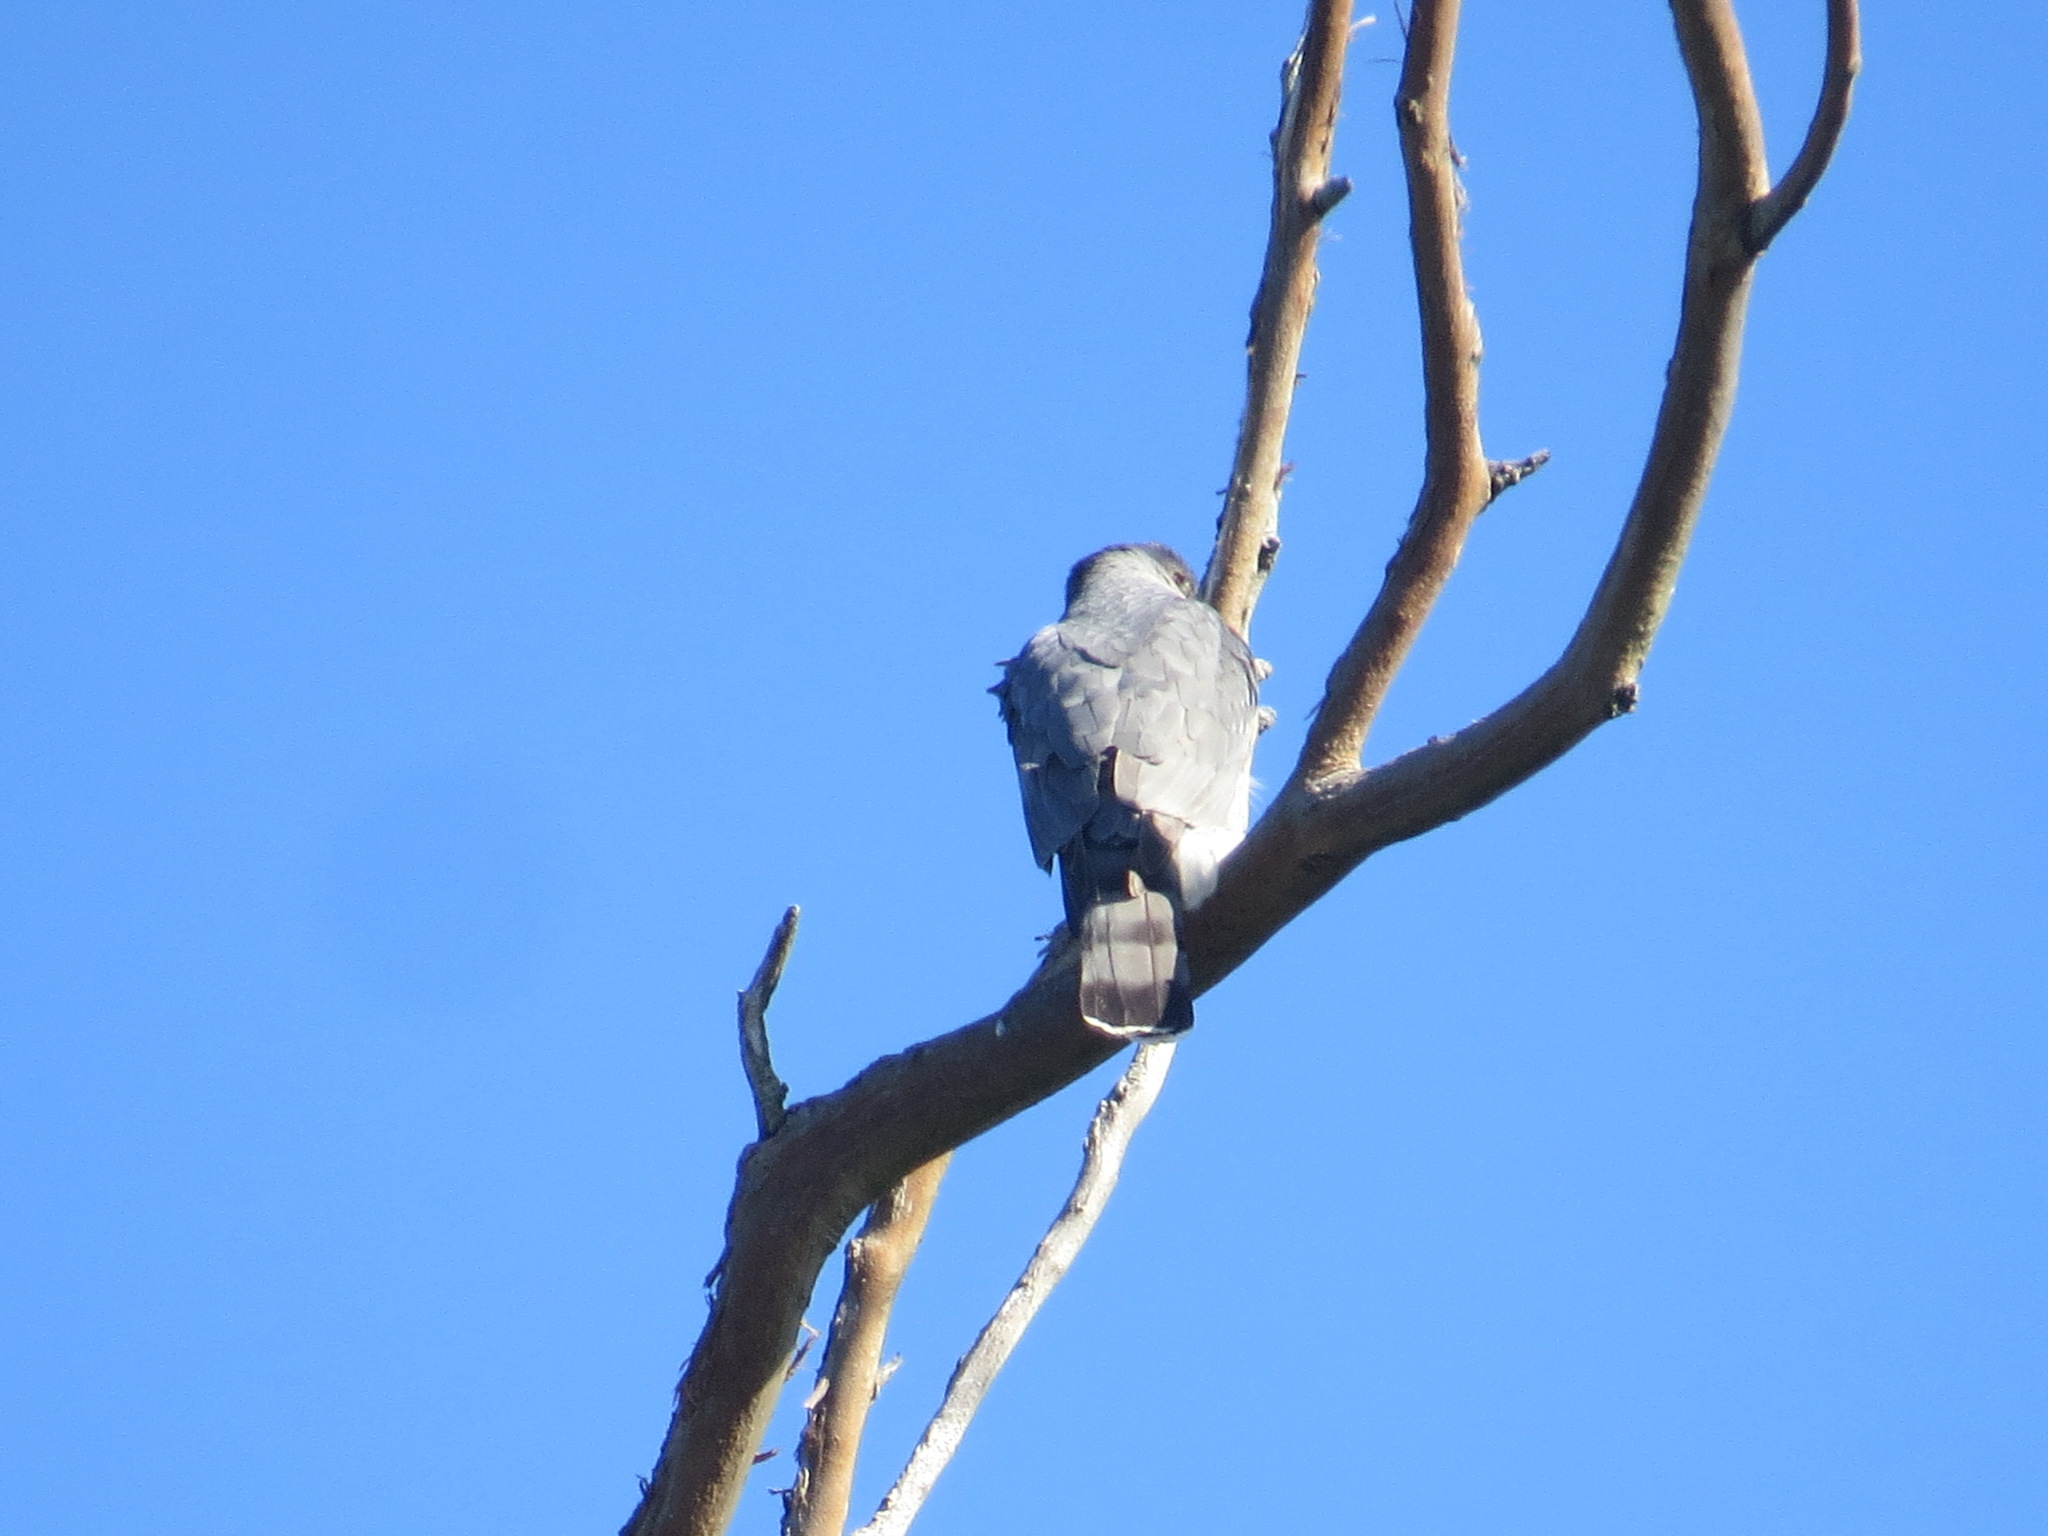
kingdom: Animalia
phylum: Chordata
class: Aves
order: Accipitriformes
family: Accipitridae
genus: Accipiter
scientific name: Accipiter cooperii
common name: Cooper's hawk
